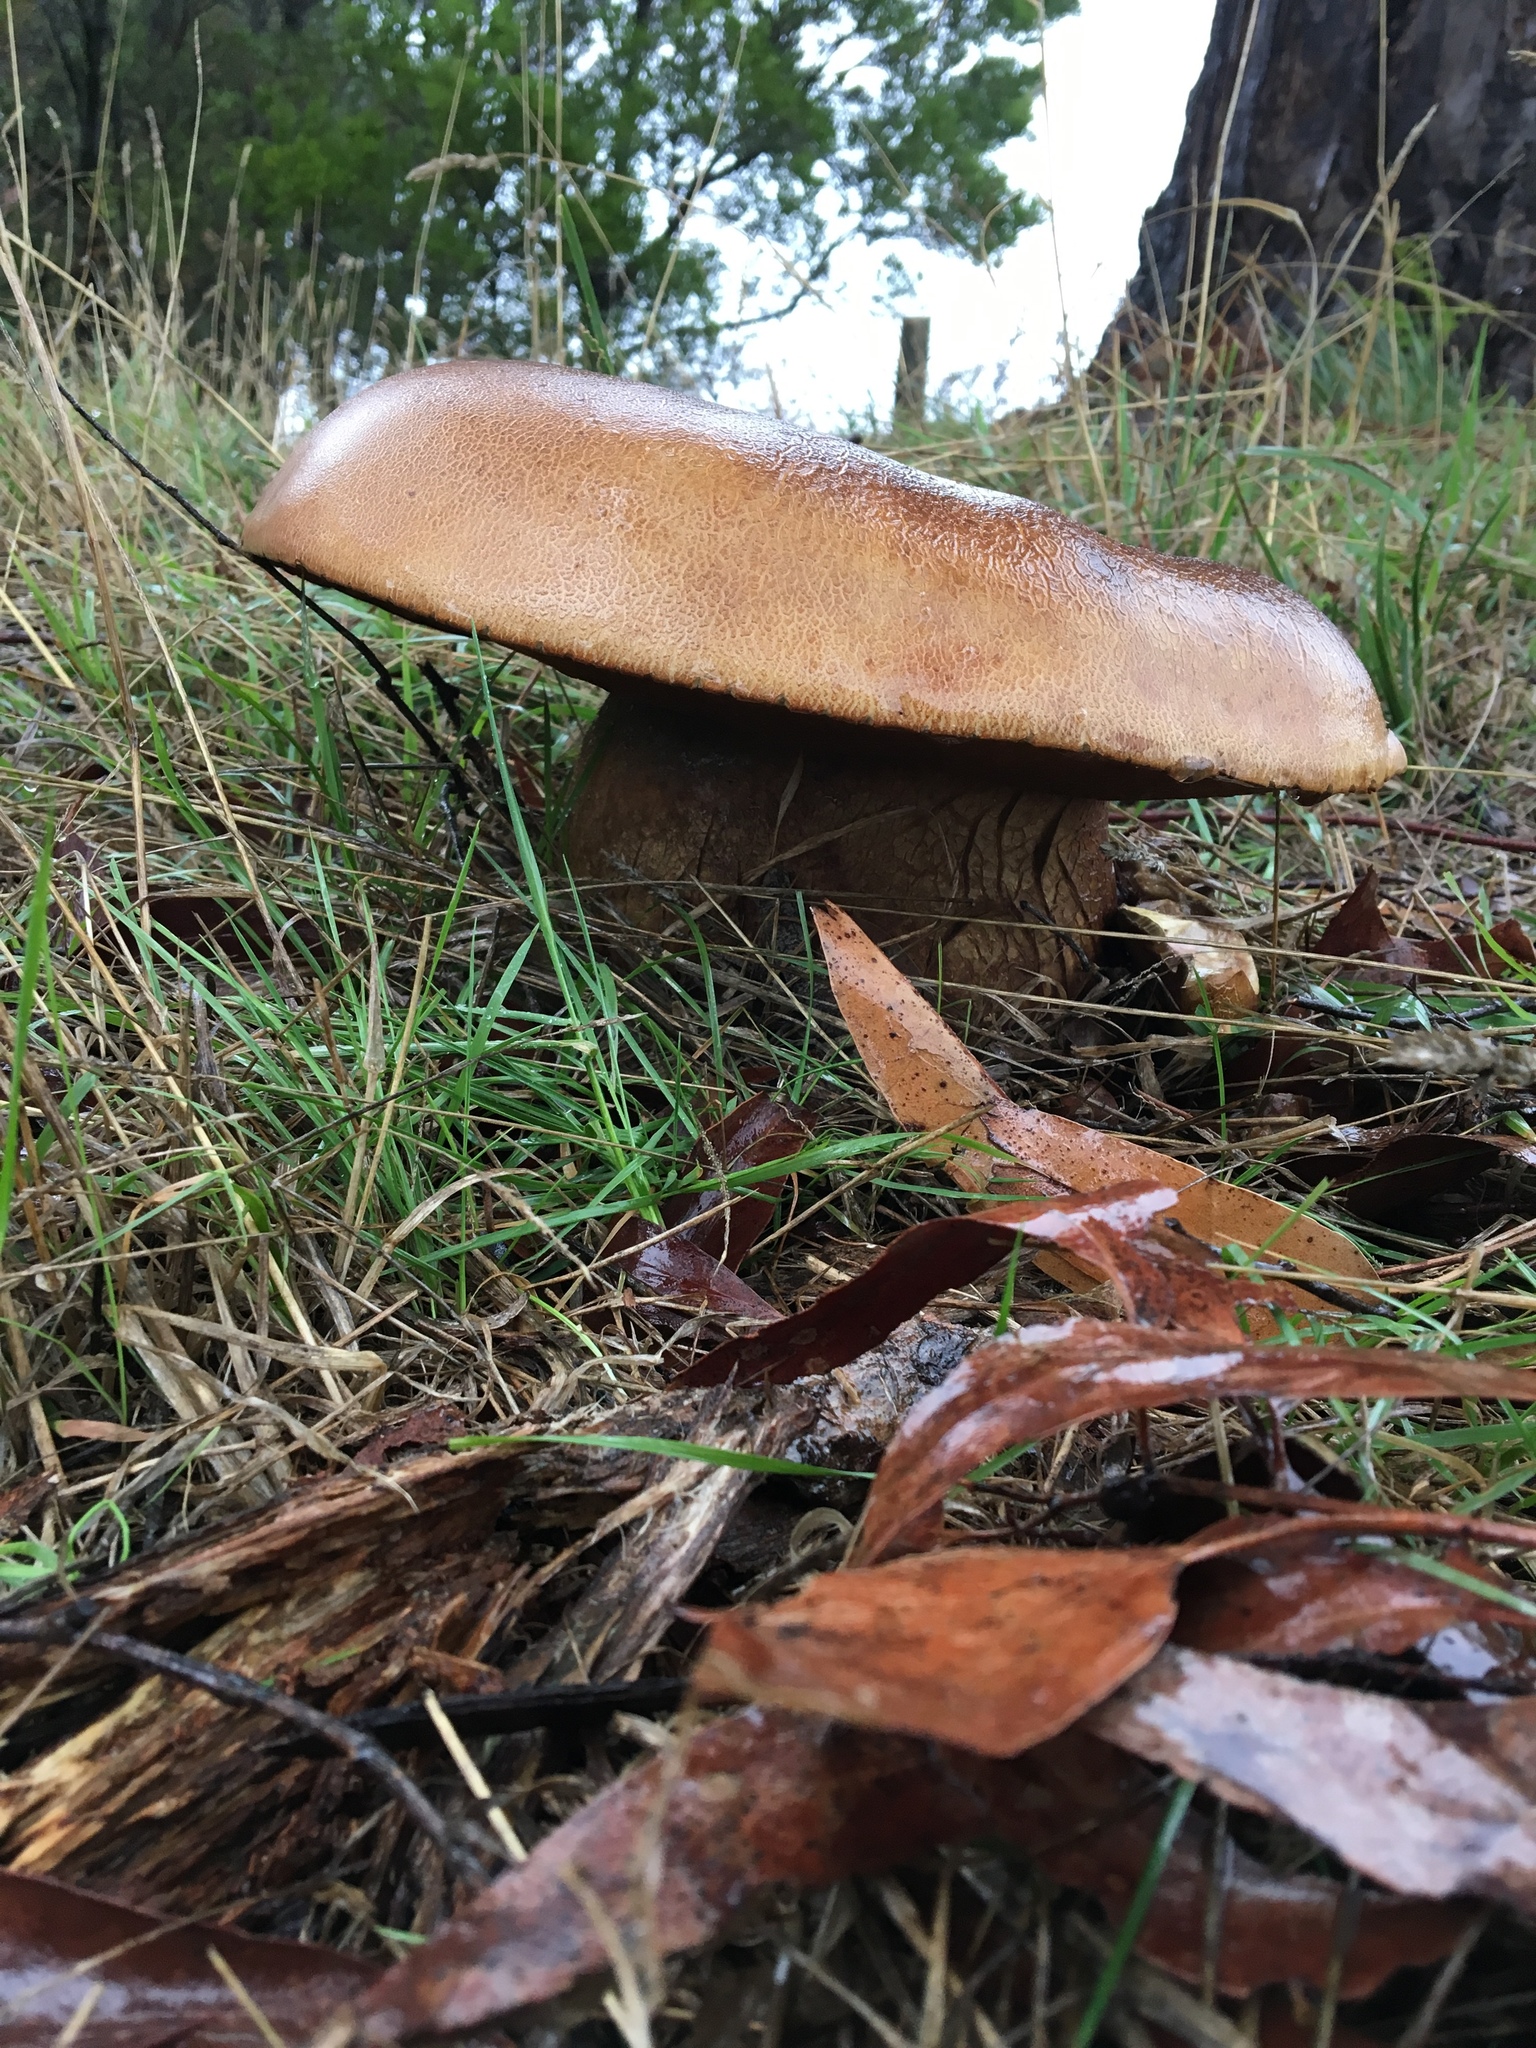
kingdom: Fungi
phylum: Basidiomycota
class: Agaricomycetes
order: Boletales
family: Boletinellaceae
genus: Phlebopus
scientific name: Phlebopus marginatus
